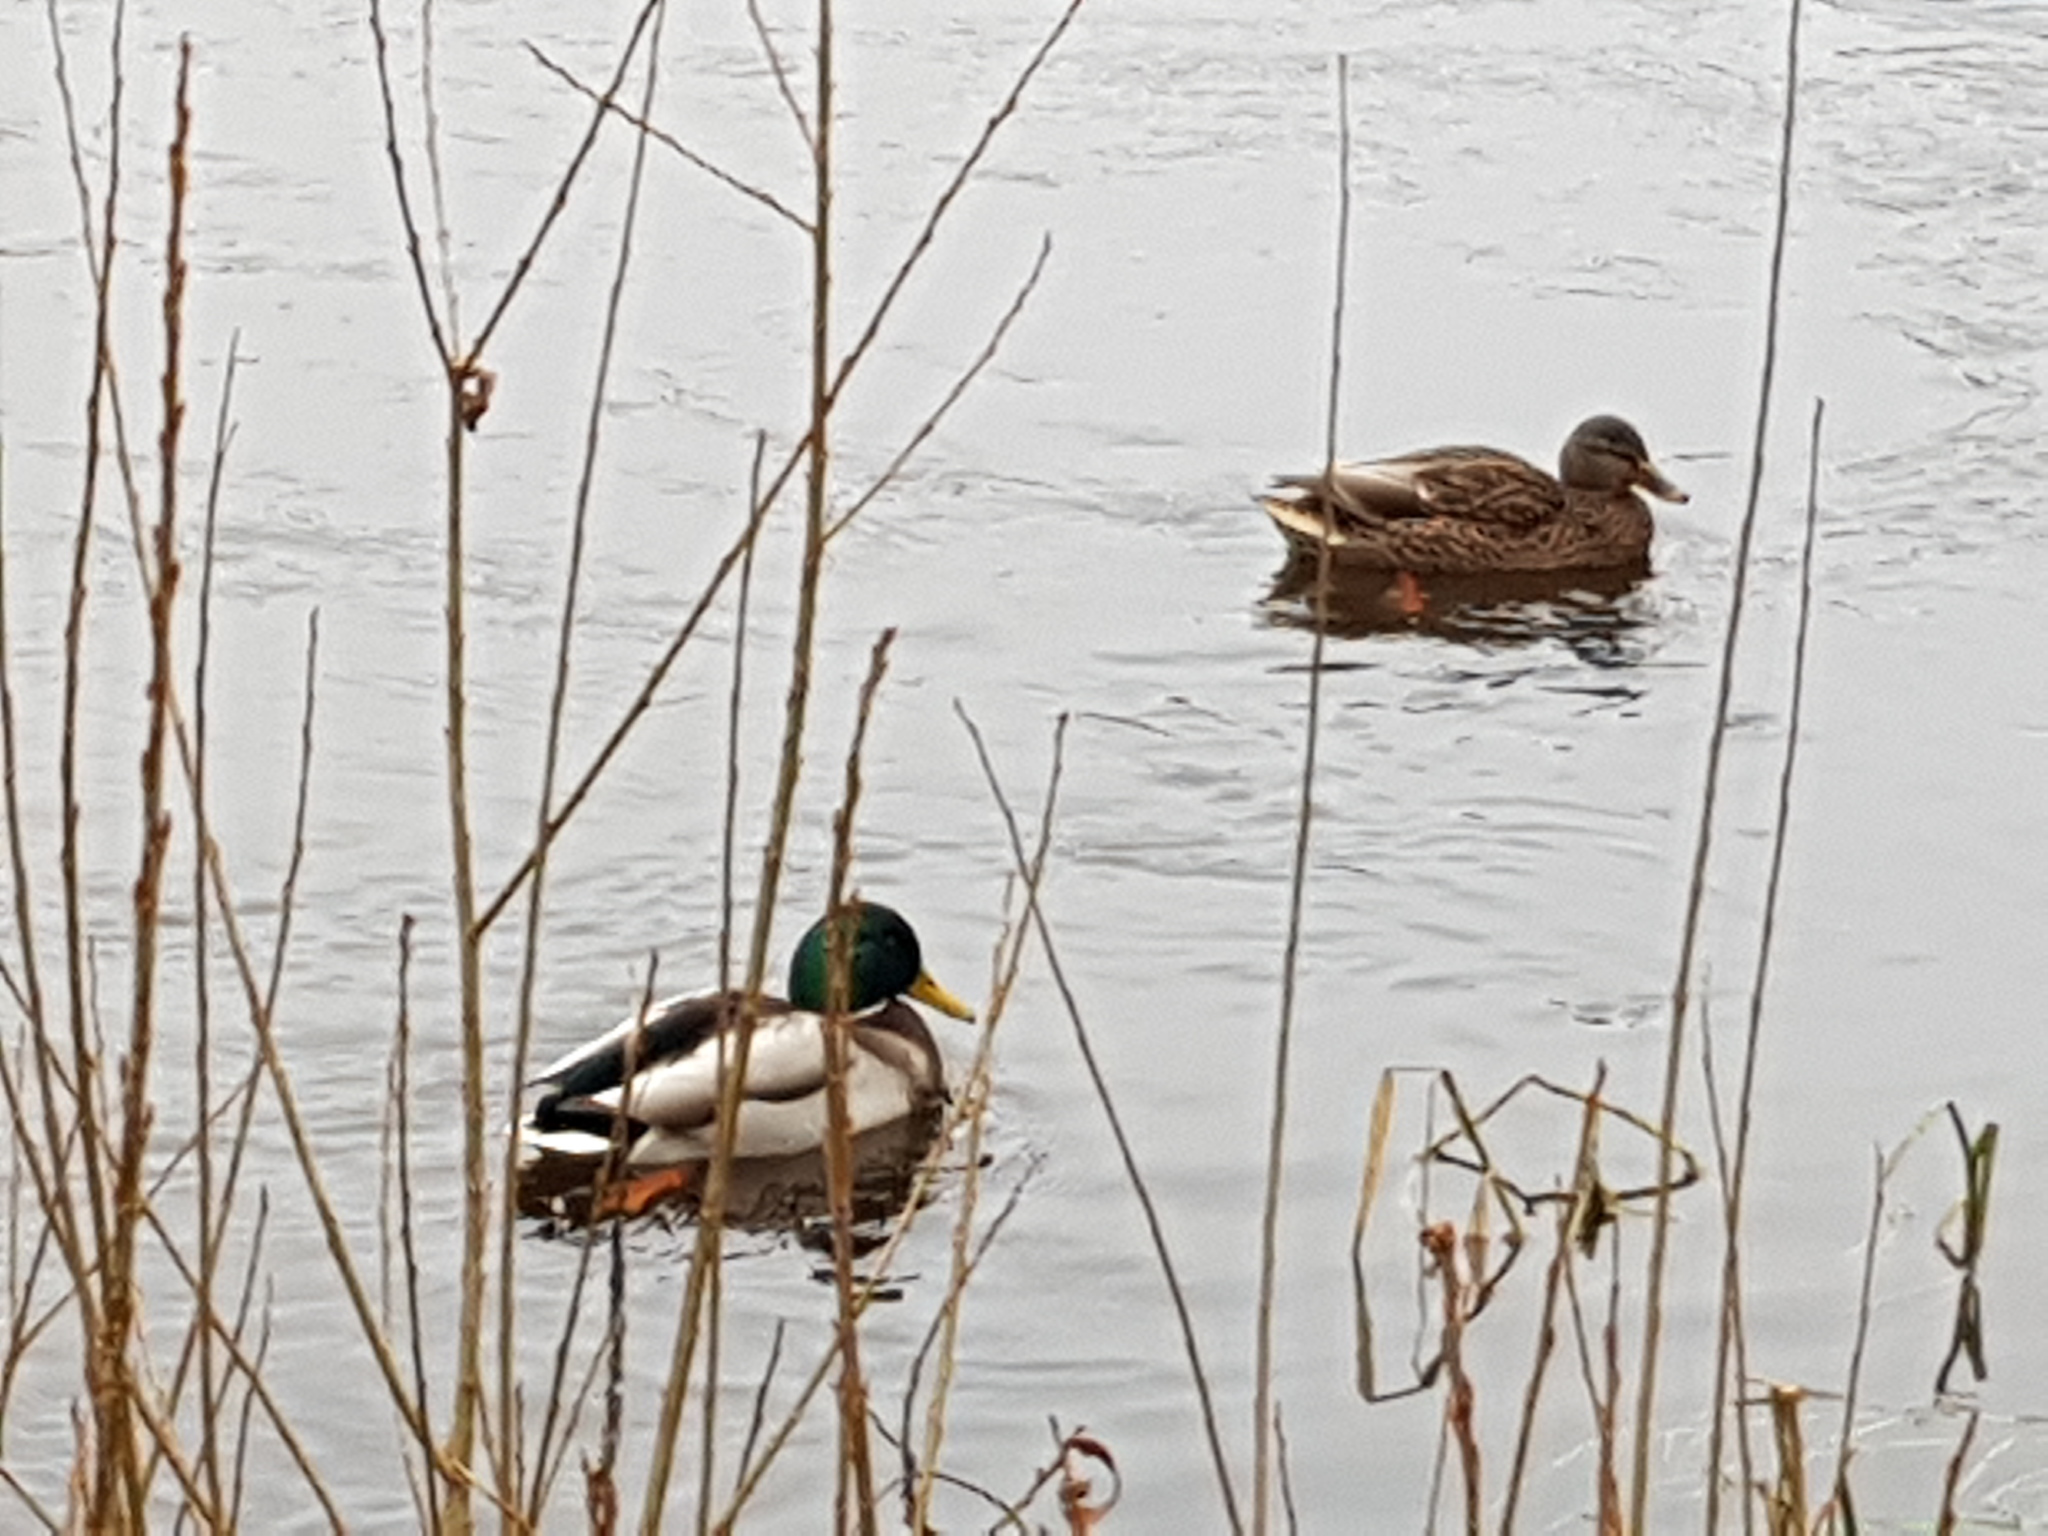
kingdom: Animalia
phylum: Chordata
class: Aves
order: Anseriformes
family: Anatidae
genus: Anas
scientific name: Anas platyrhynchos
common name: Mallard
